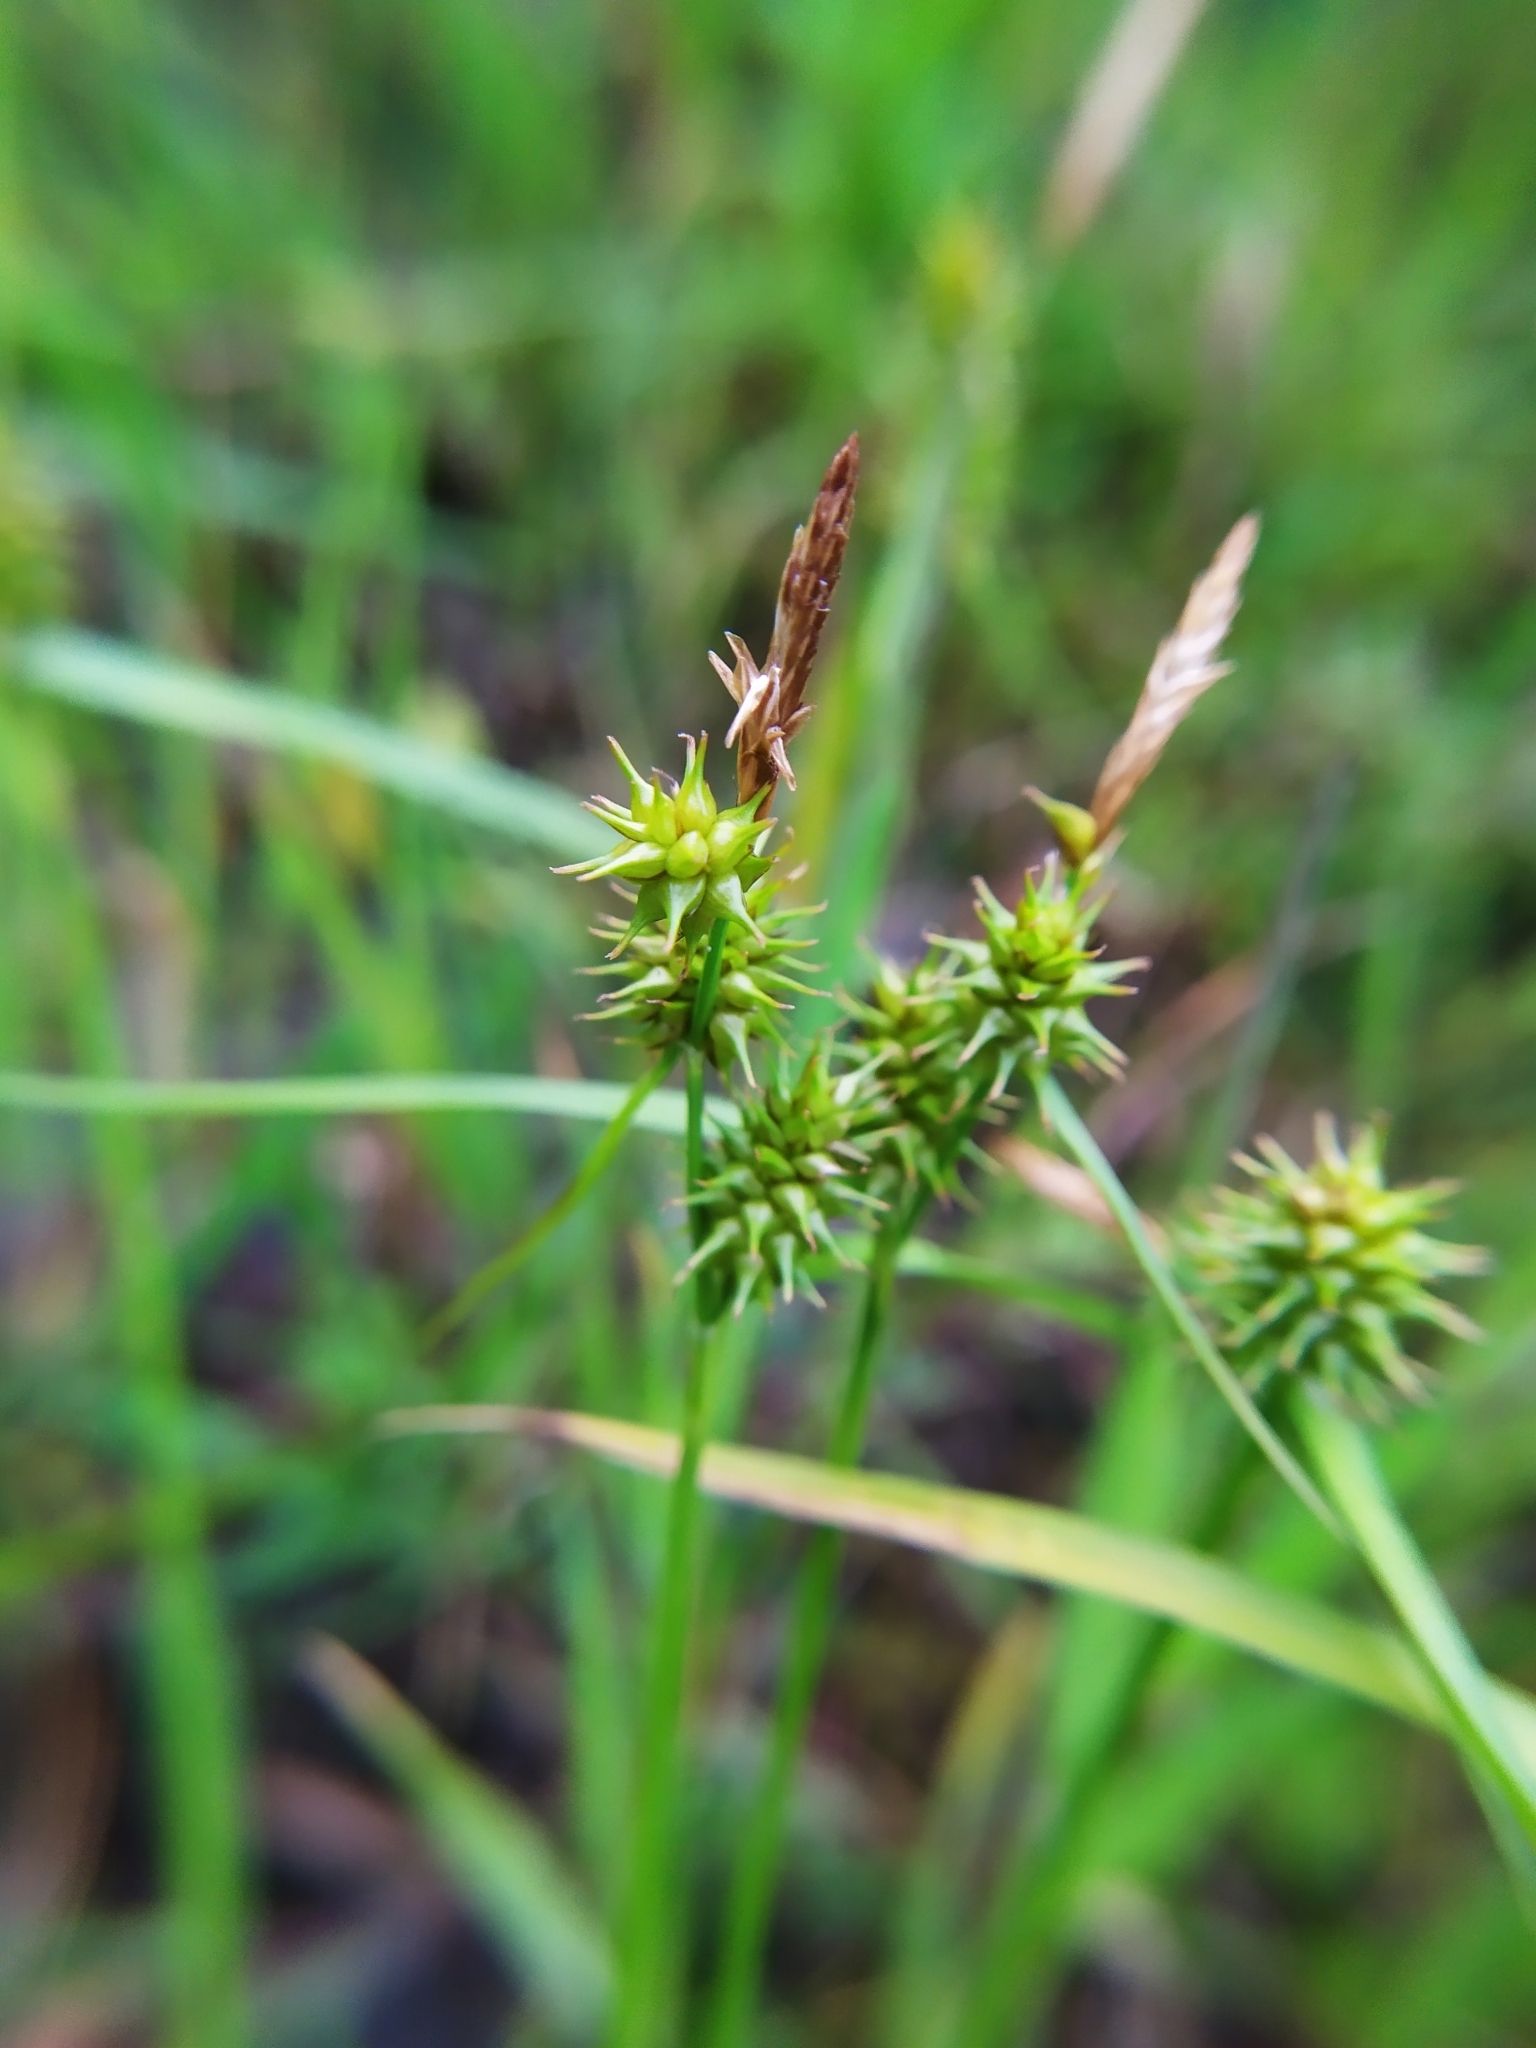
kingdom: Plantae
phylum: Tracheophyta
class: Liliopsida
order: Poales
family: Cyperaceae
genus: Carex
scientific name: Carex flava
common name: Large yellow-sedge
